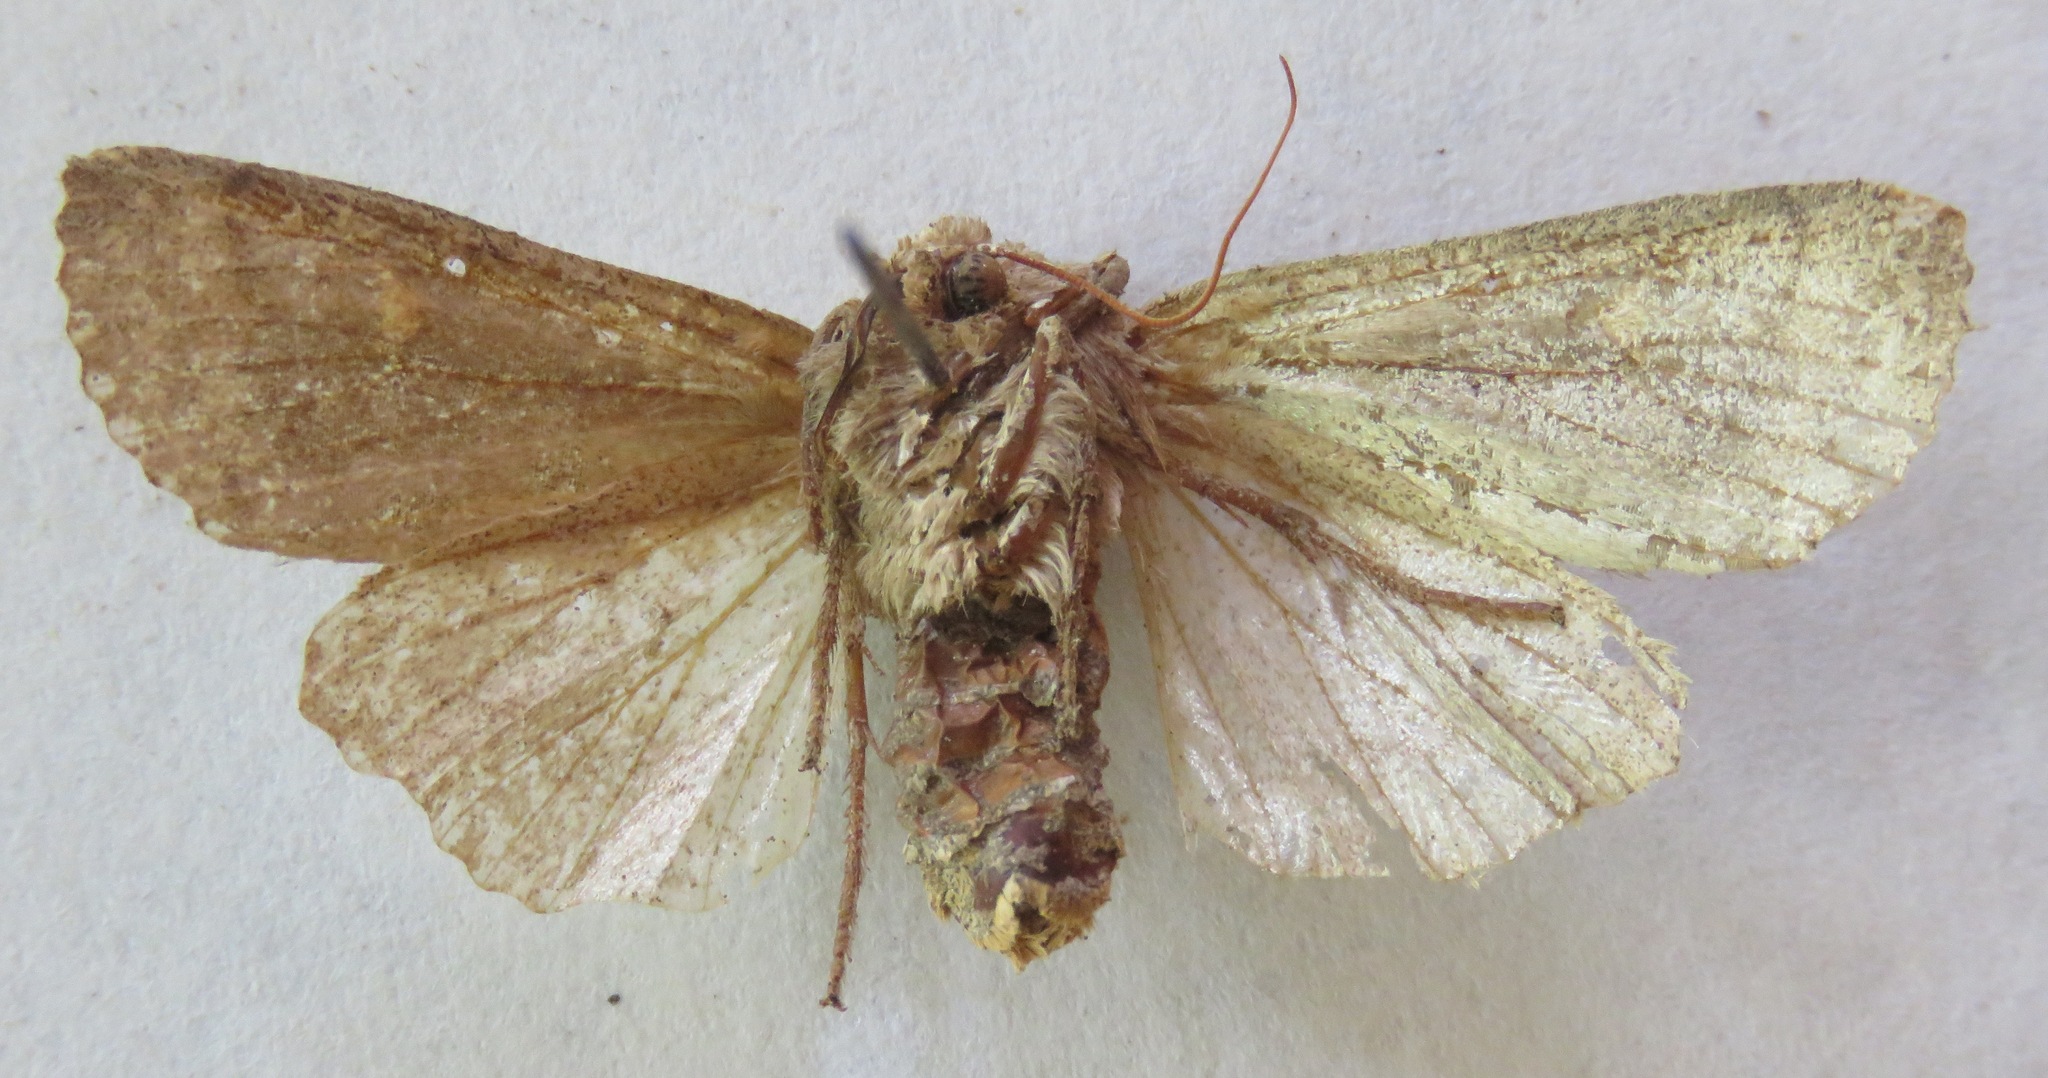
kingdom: Animalia
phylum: Arthropoda
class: Insecta
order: Lepidoptera
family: Noctuidae
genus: Eupsilia
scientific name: Eupsilia transversa
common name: Satellite
